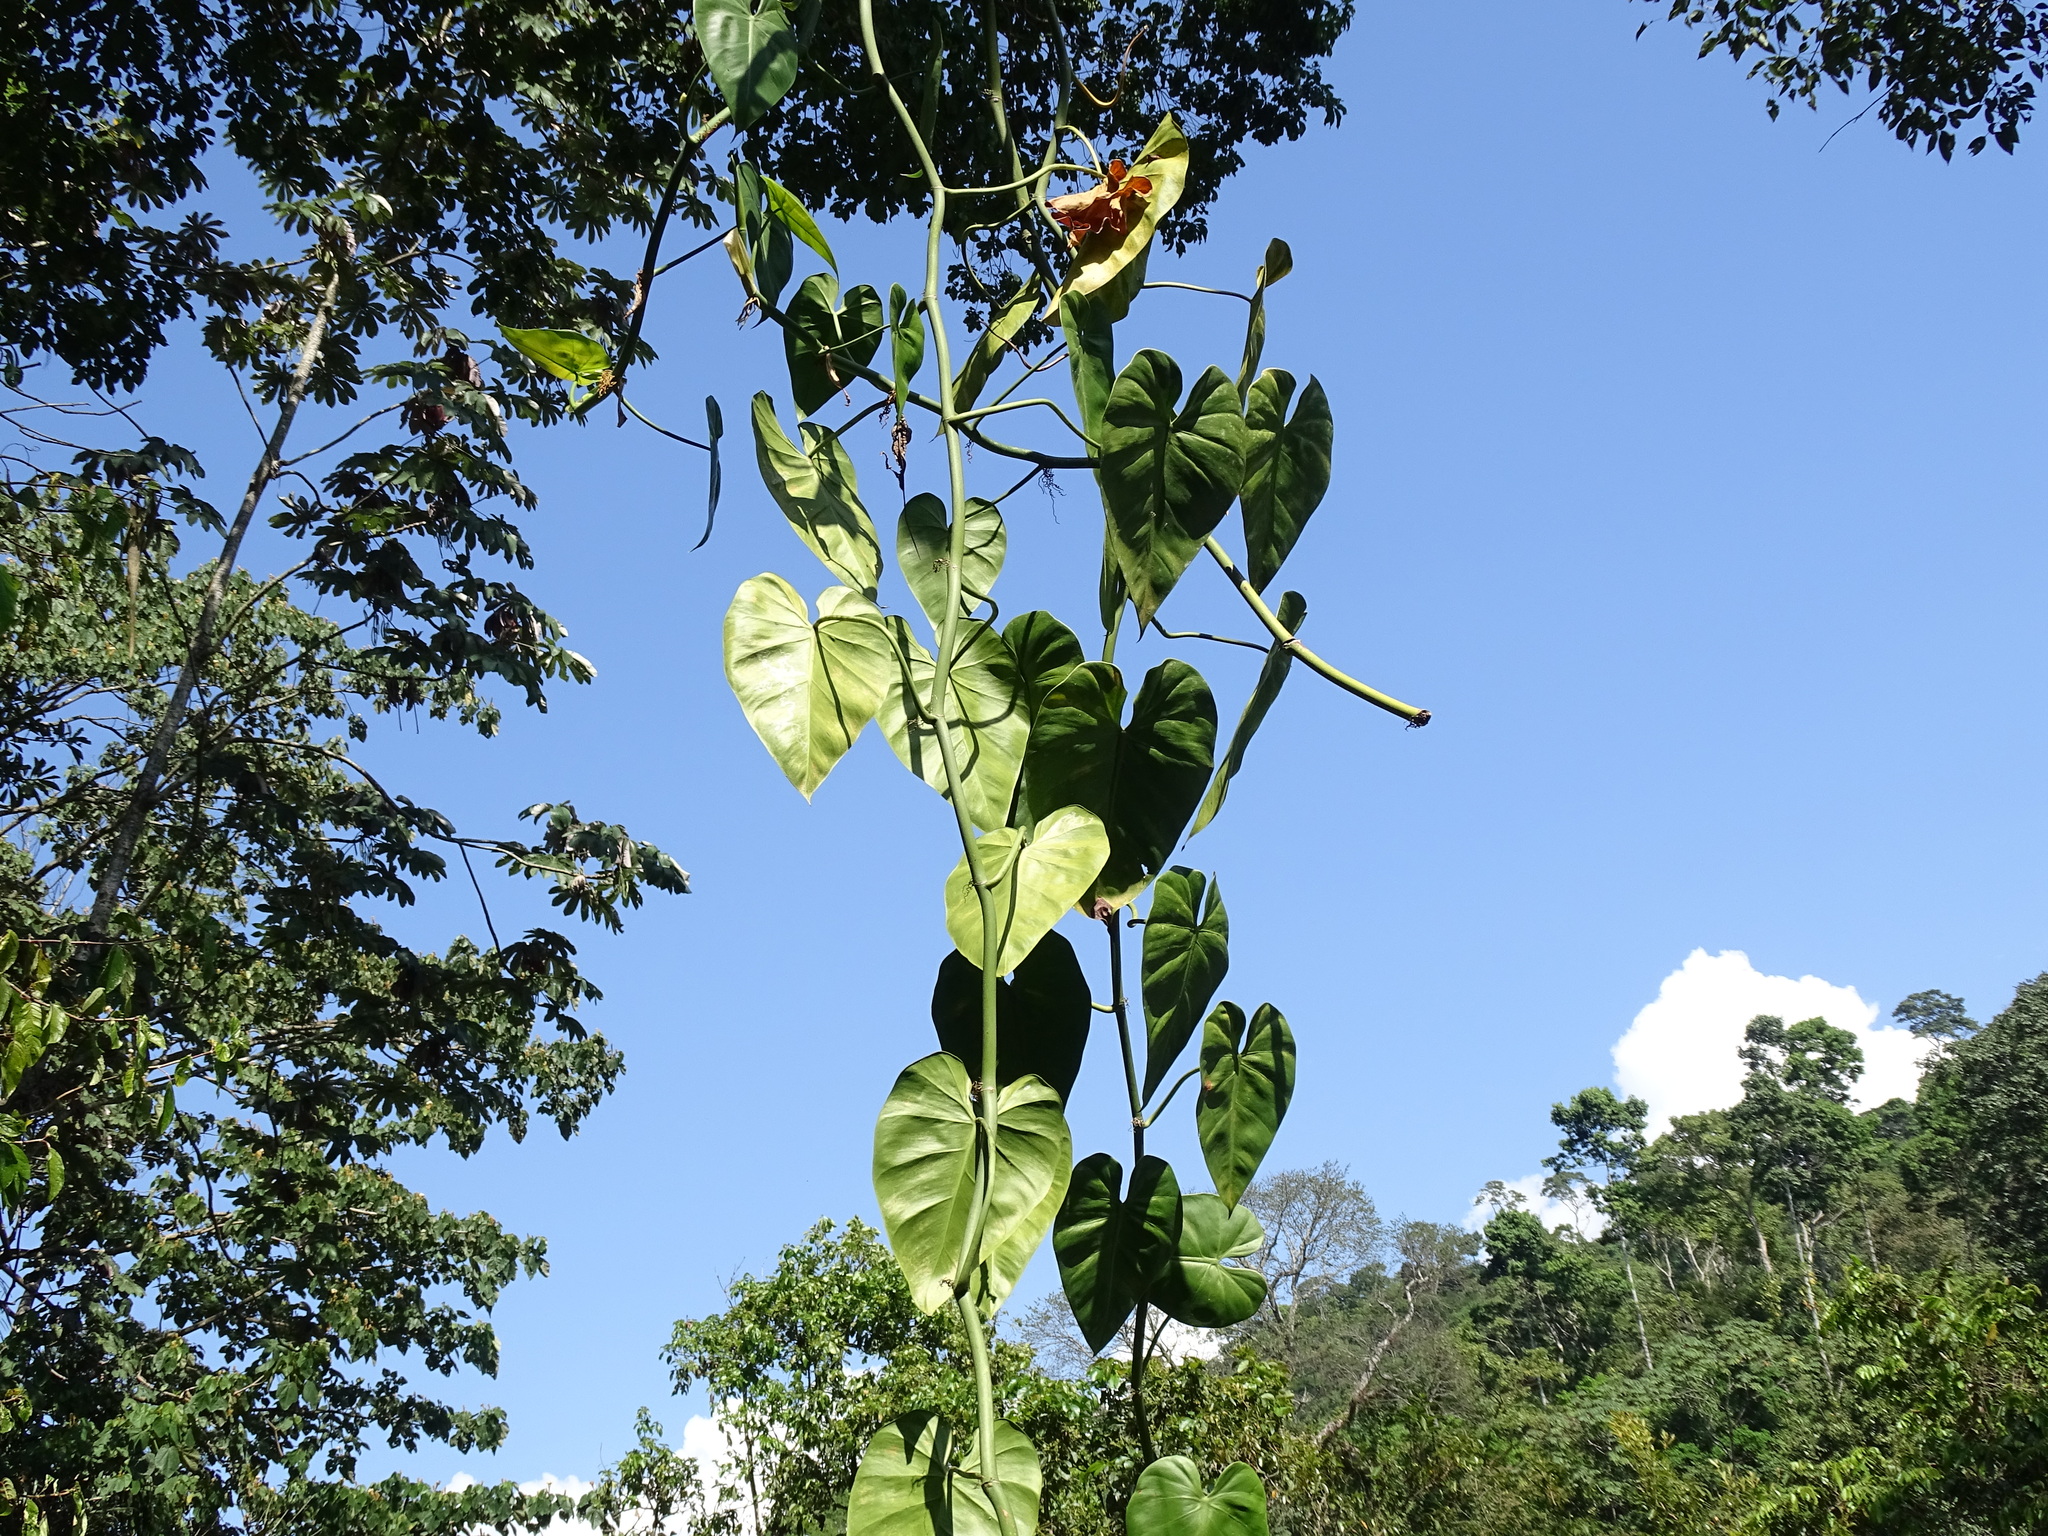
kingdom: Plantae
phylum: Tracheophyta
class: Liliopsida
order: Alismatales
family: Araceae
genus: Philodendron
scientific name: Philodendron hederaceum
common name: Vilevine
